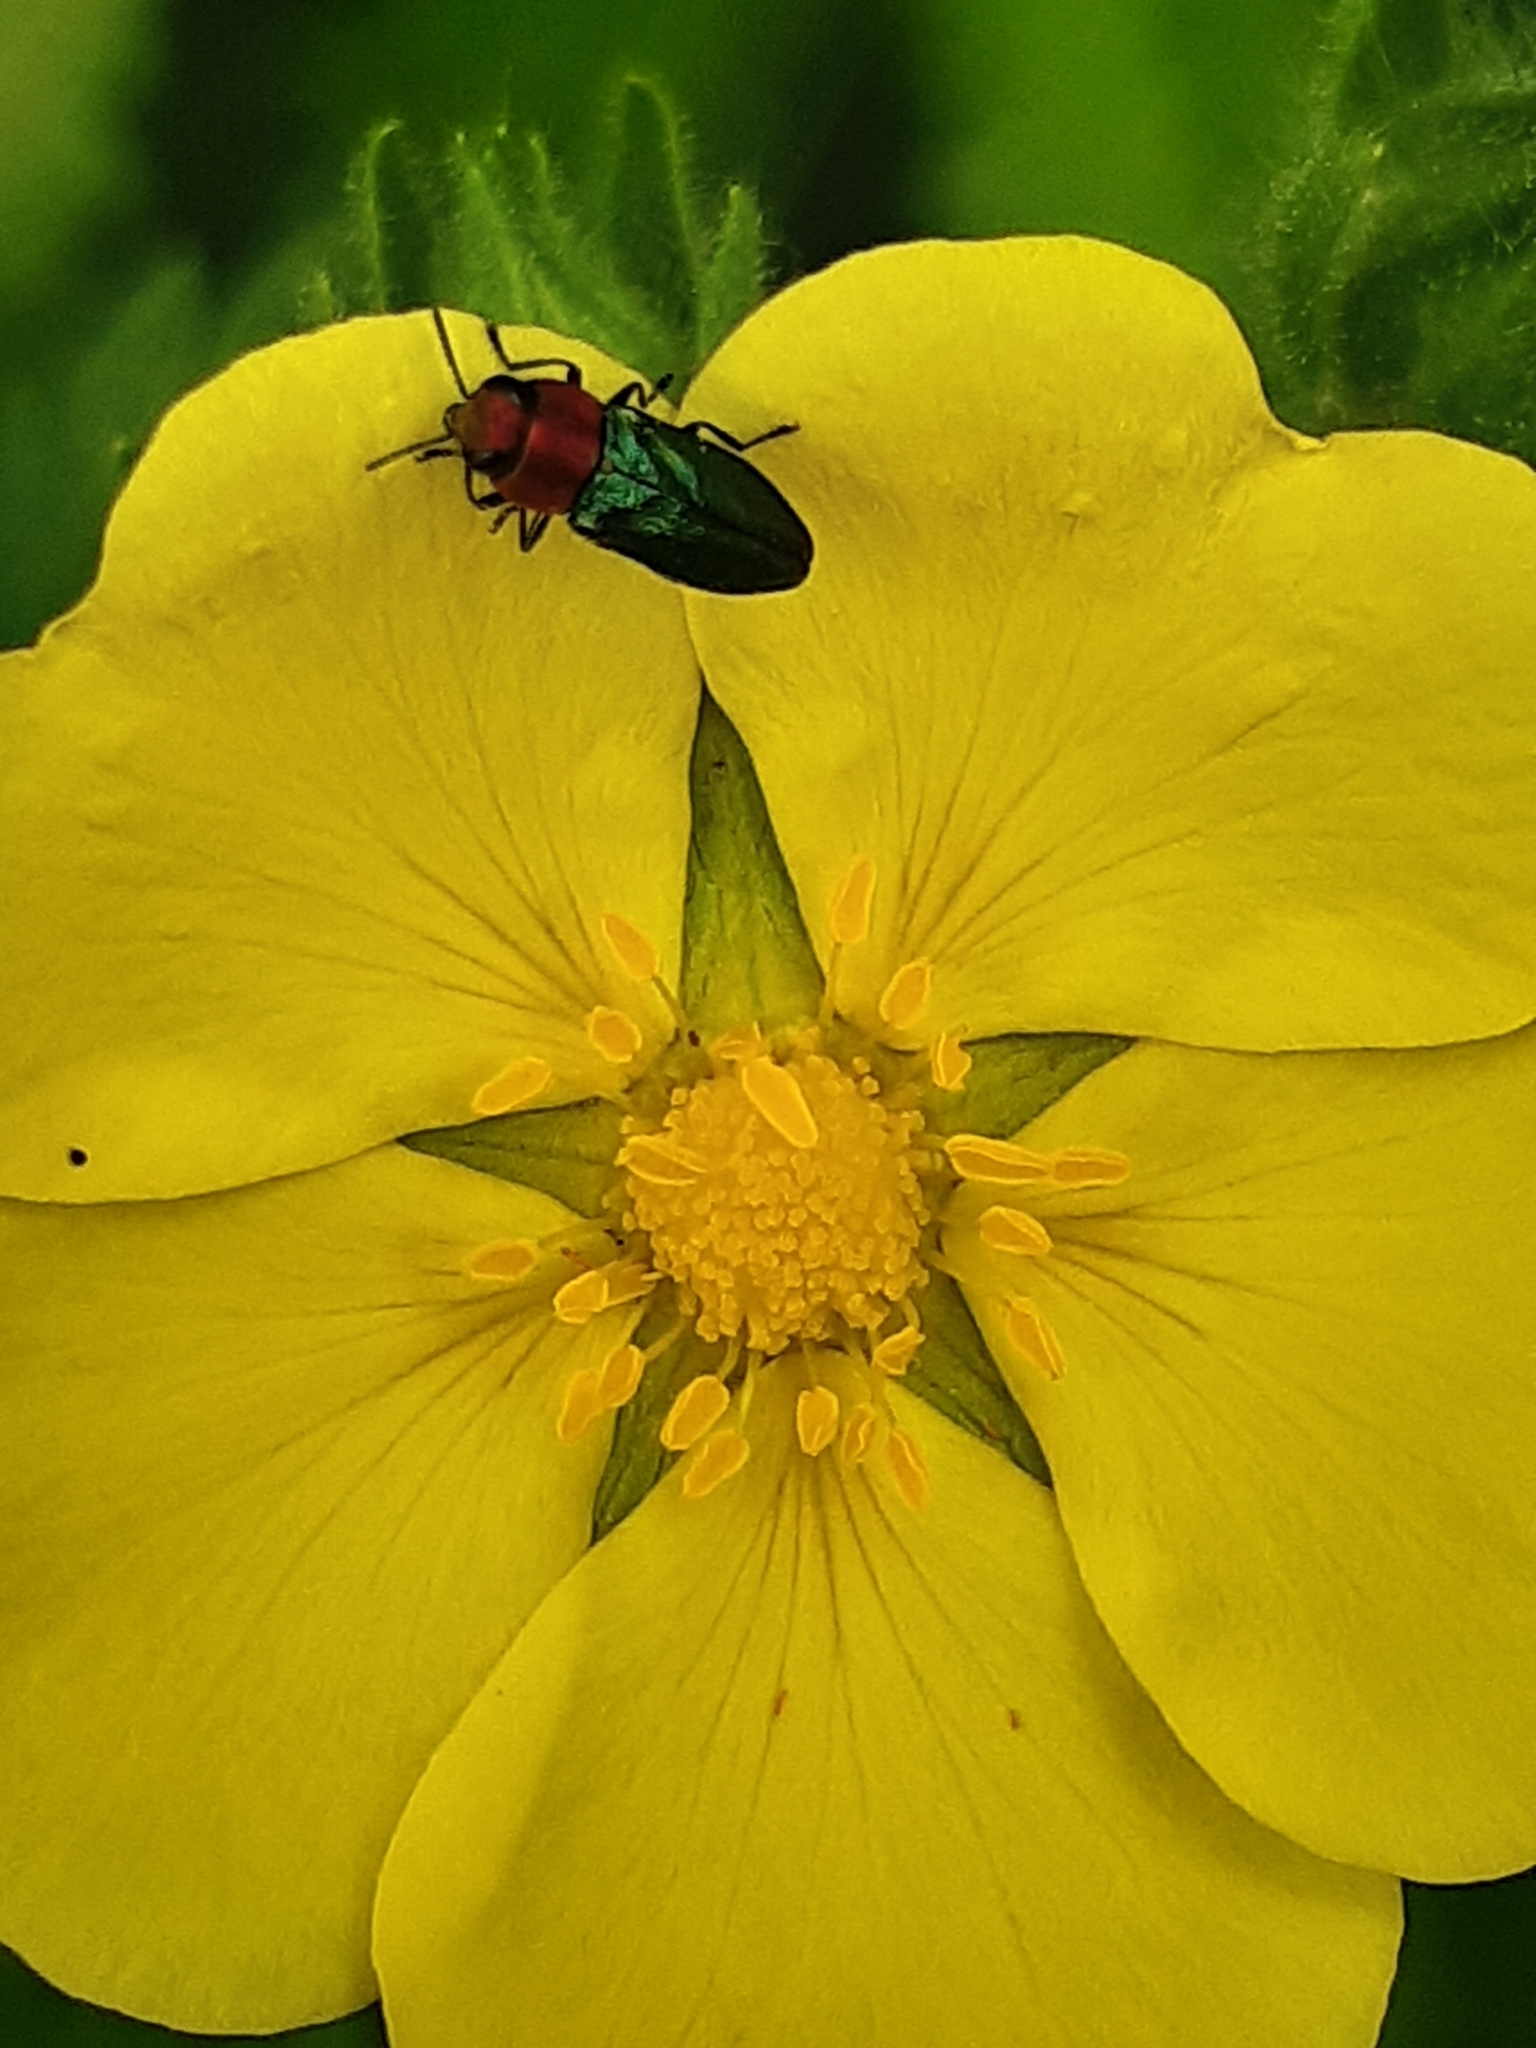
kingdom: Animalia
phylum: Arthropoda
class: Insecta
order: Coleoptera
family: Buprestidae
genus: Anthaxia
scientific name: Anthaxia nitidula
